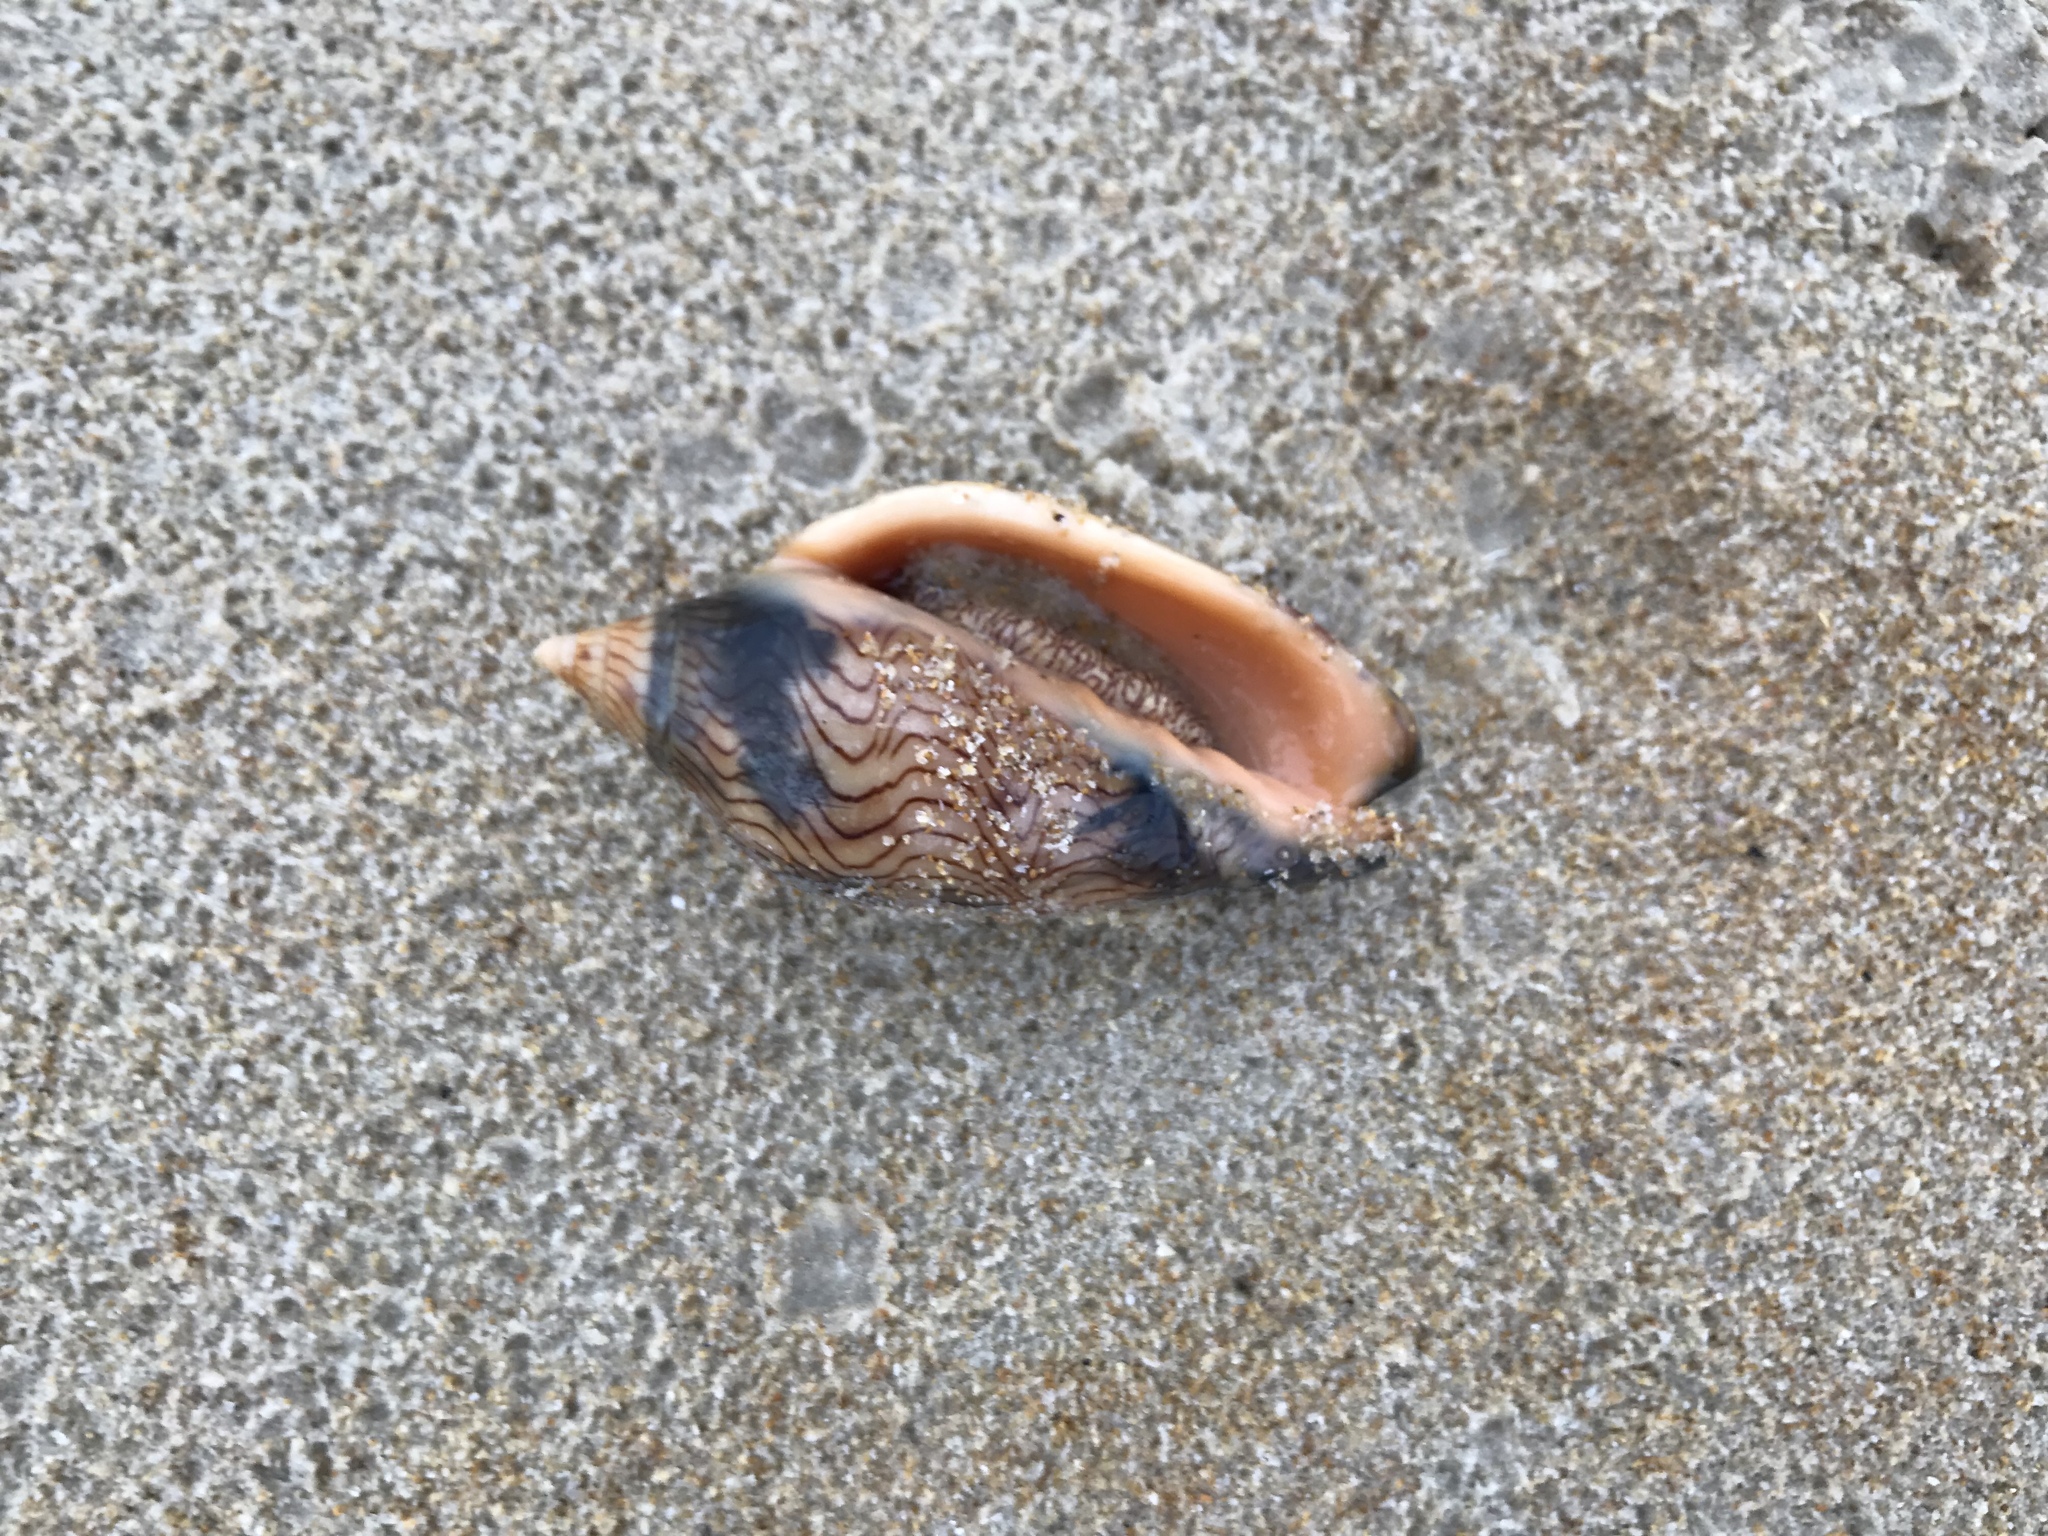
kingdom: Animalia
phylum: Mollusca
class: Gastropoda
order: Neogastropoda
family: Volutidae
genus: Amoria
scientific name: Amoria undulata
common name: Waved volute
